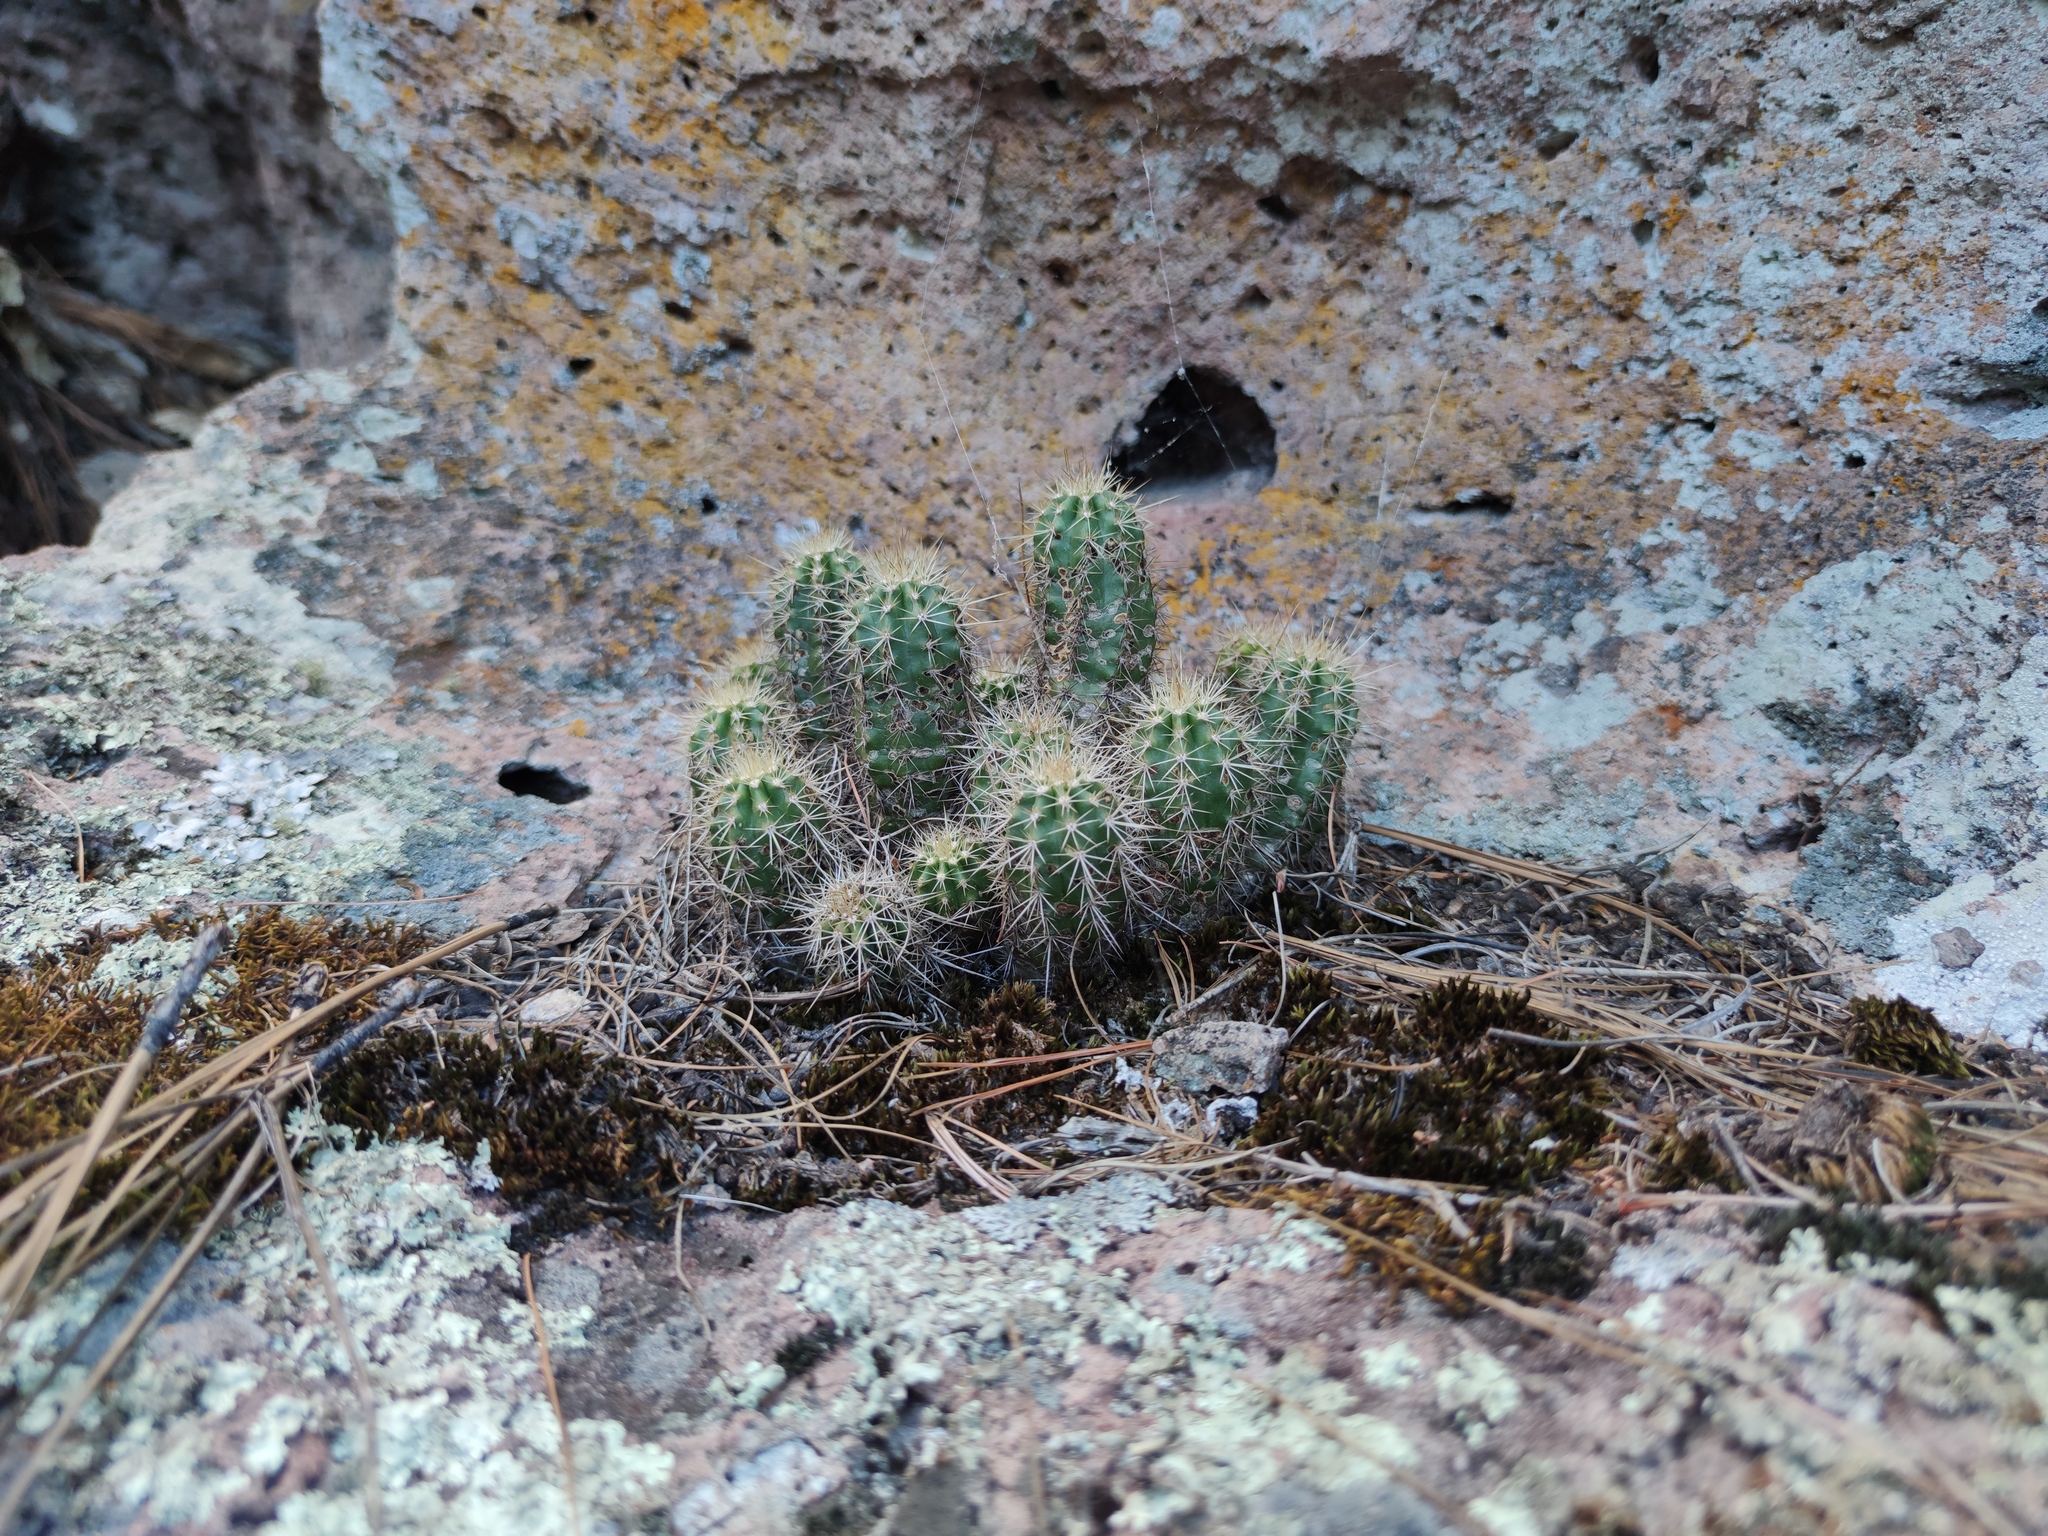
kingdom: Plantae
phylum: Tracheophyta
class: Magnoliopsida
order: Caryophyllales
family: Cactaceae
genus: Echinocereus
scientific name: Echinocereus polyacanthus
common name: Mojave mound cactus
